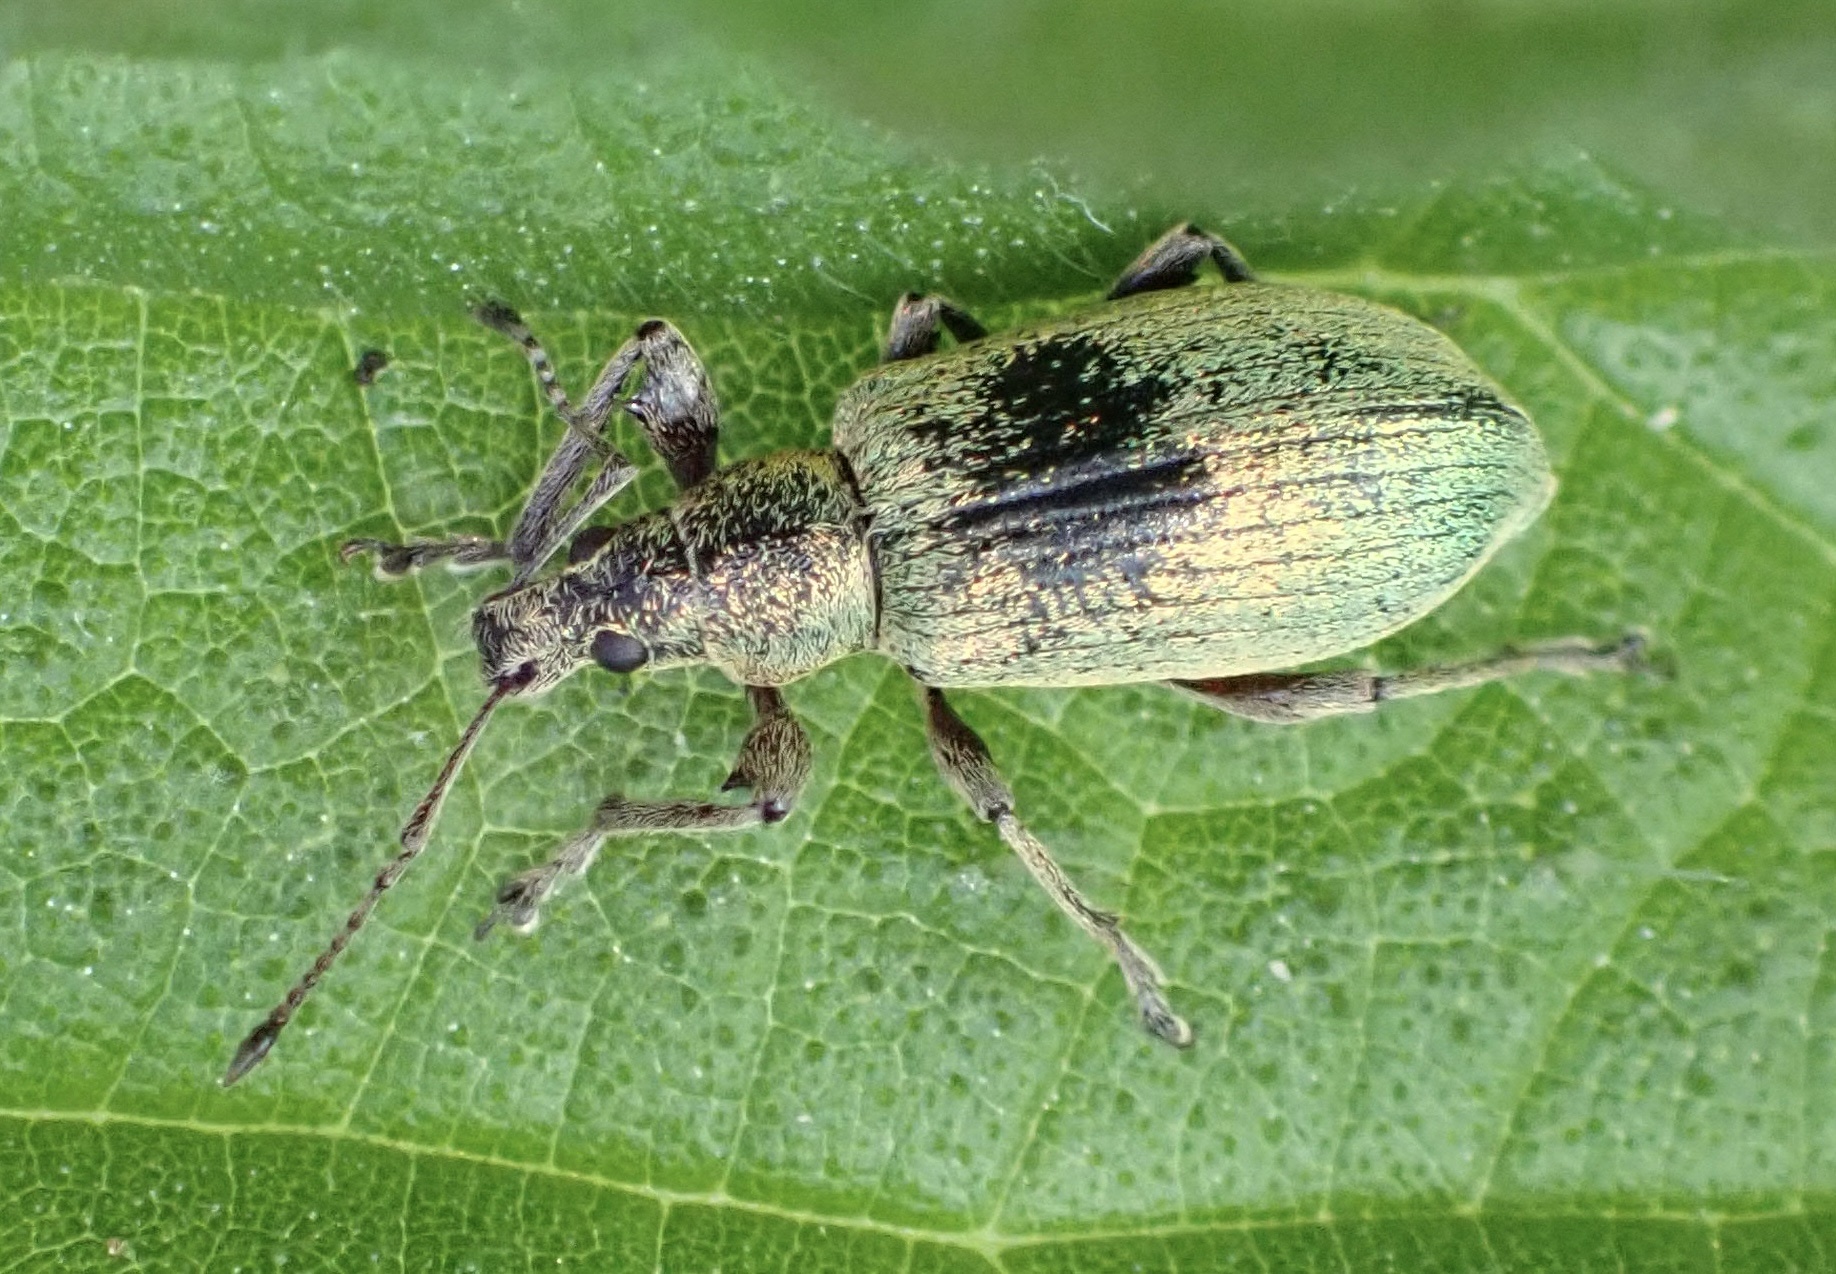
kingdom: Animalia
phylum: Arthropoda
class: Insecta
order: Coleoptera
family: Curculionidae
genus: Phyllobius
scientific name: Phyllobius pomaceus
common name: Green nettle weevil
